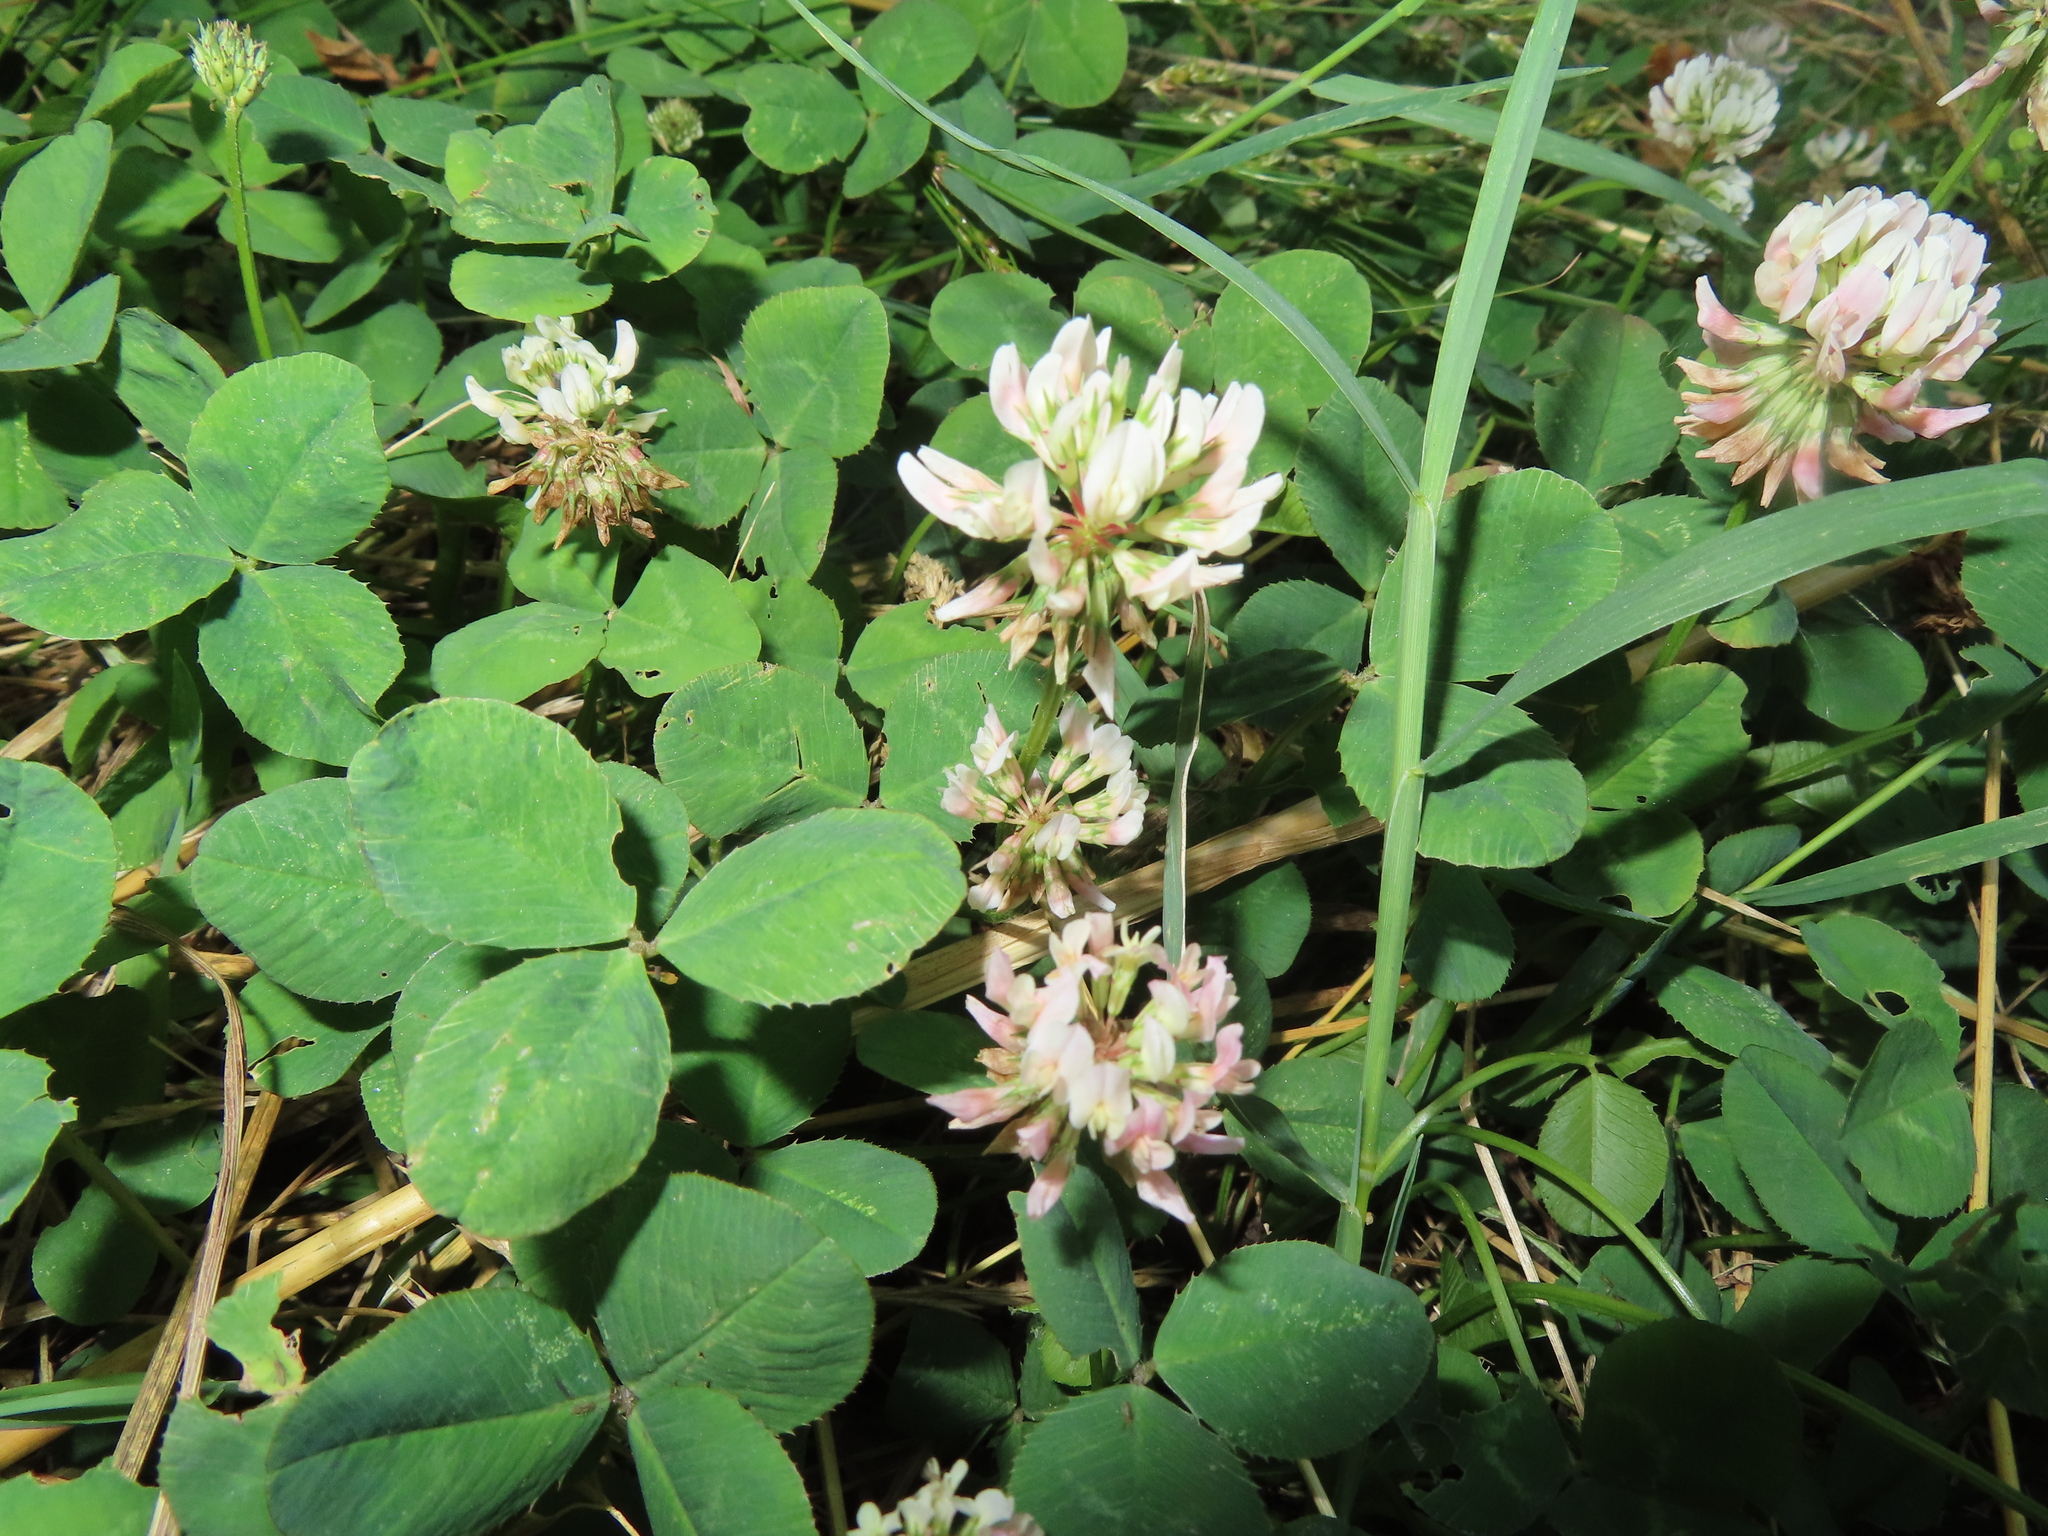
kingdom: Plantae
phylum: Tracheophyta
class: Magnoliopsida
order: Fabales
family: Fabaceae
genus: Trifolium
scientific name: Trifolium repens
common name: White clover
